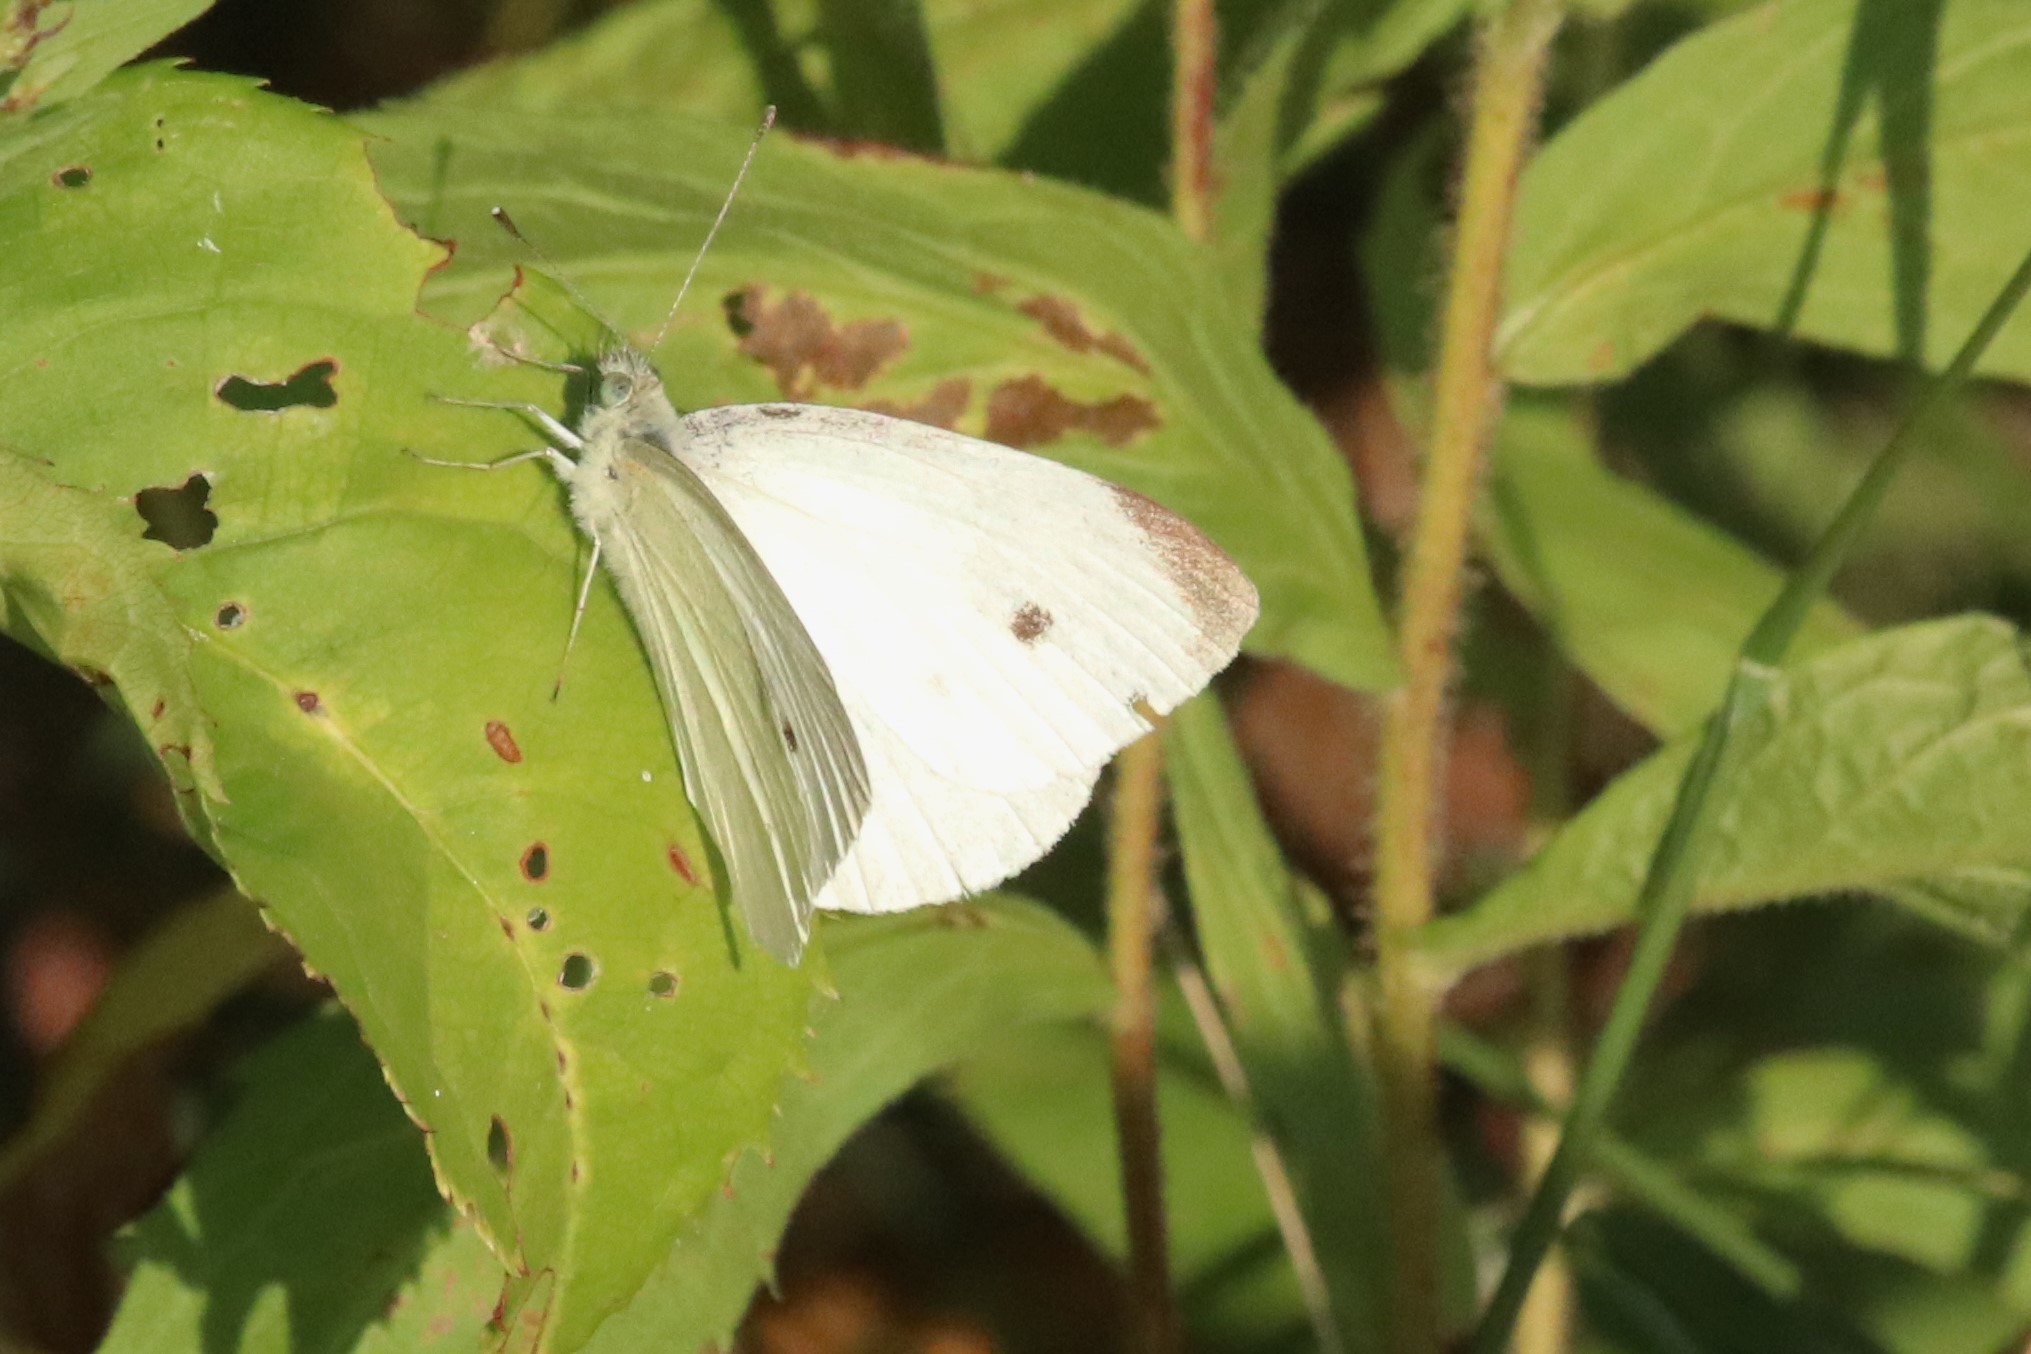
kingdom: Animalia
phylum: Arthropoda
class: Insecta
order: Lepidoptera
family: Pieridae
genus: Pieris
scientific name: Pieris rapae
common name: Small white
